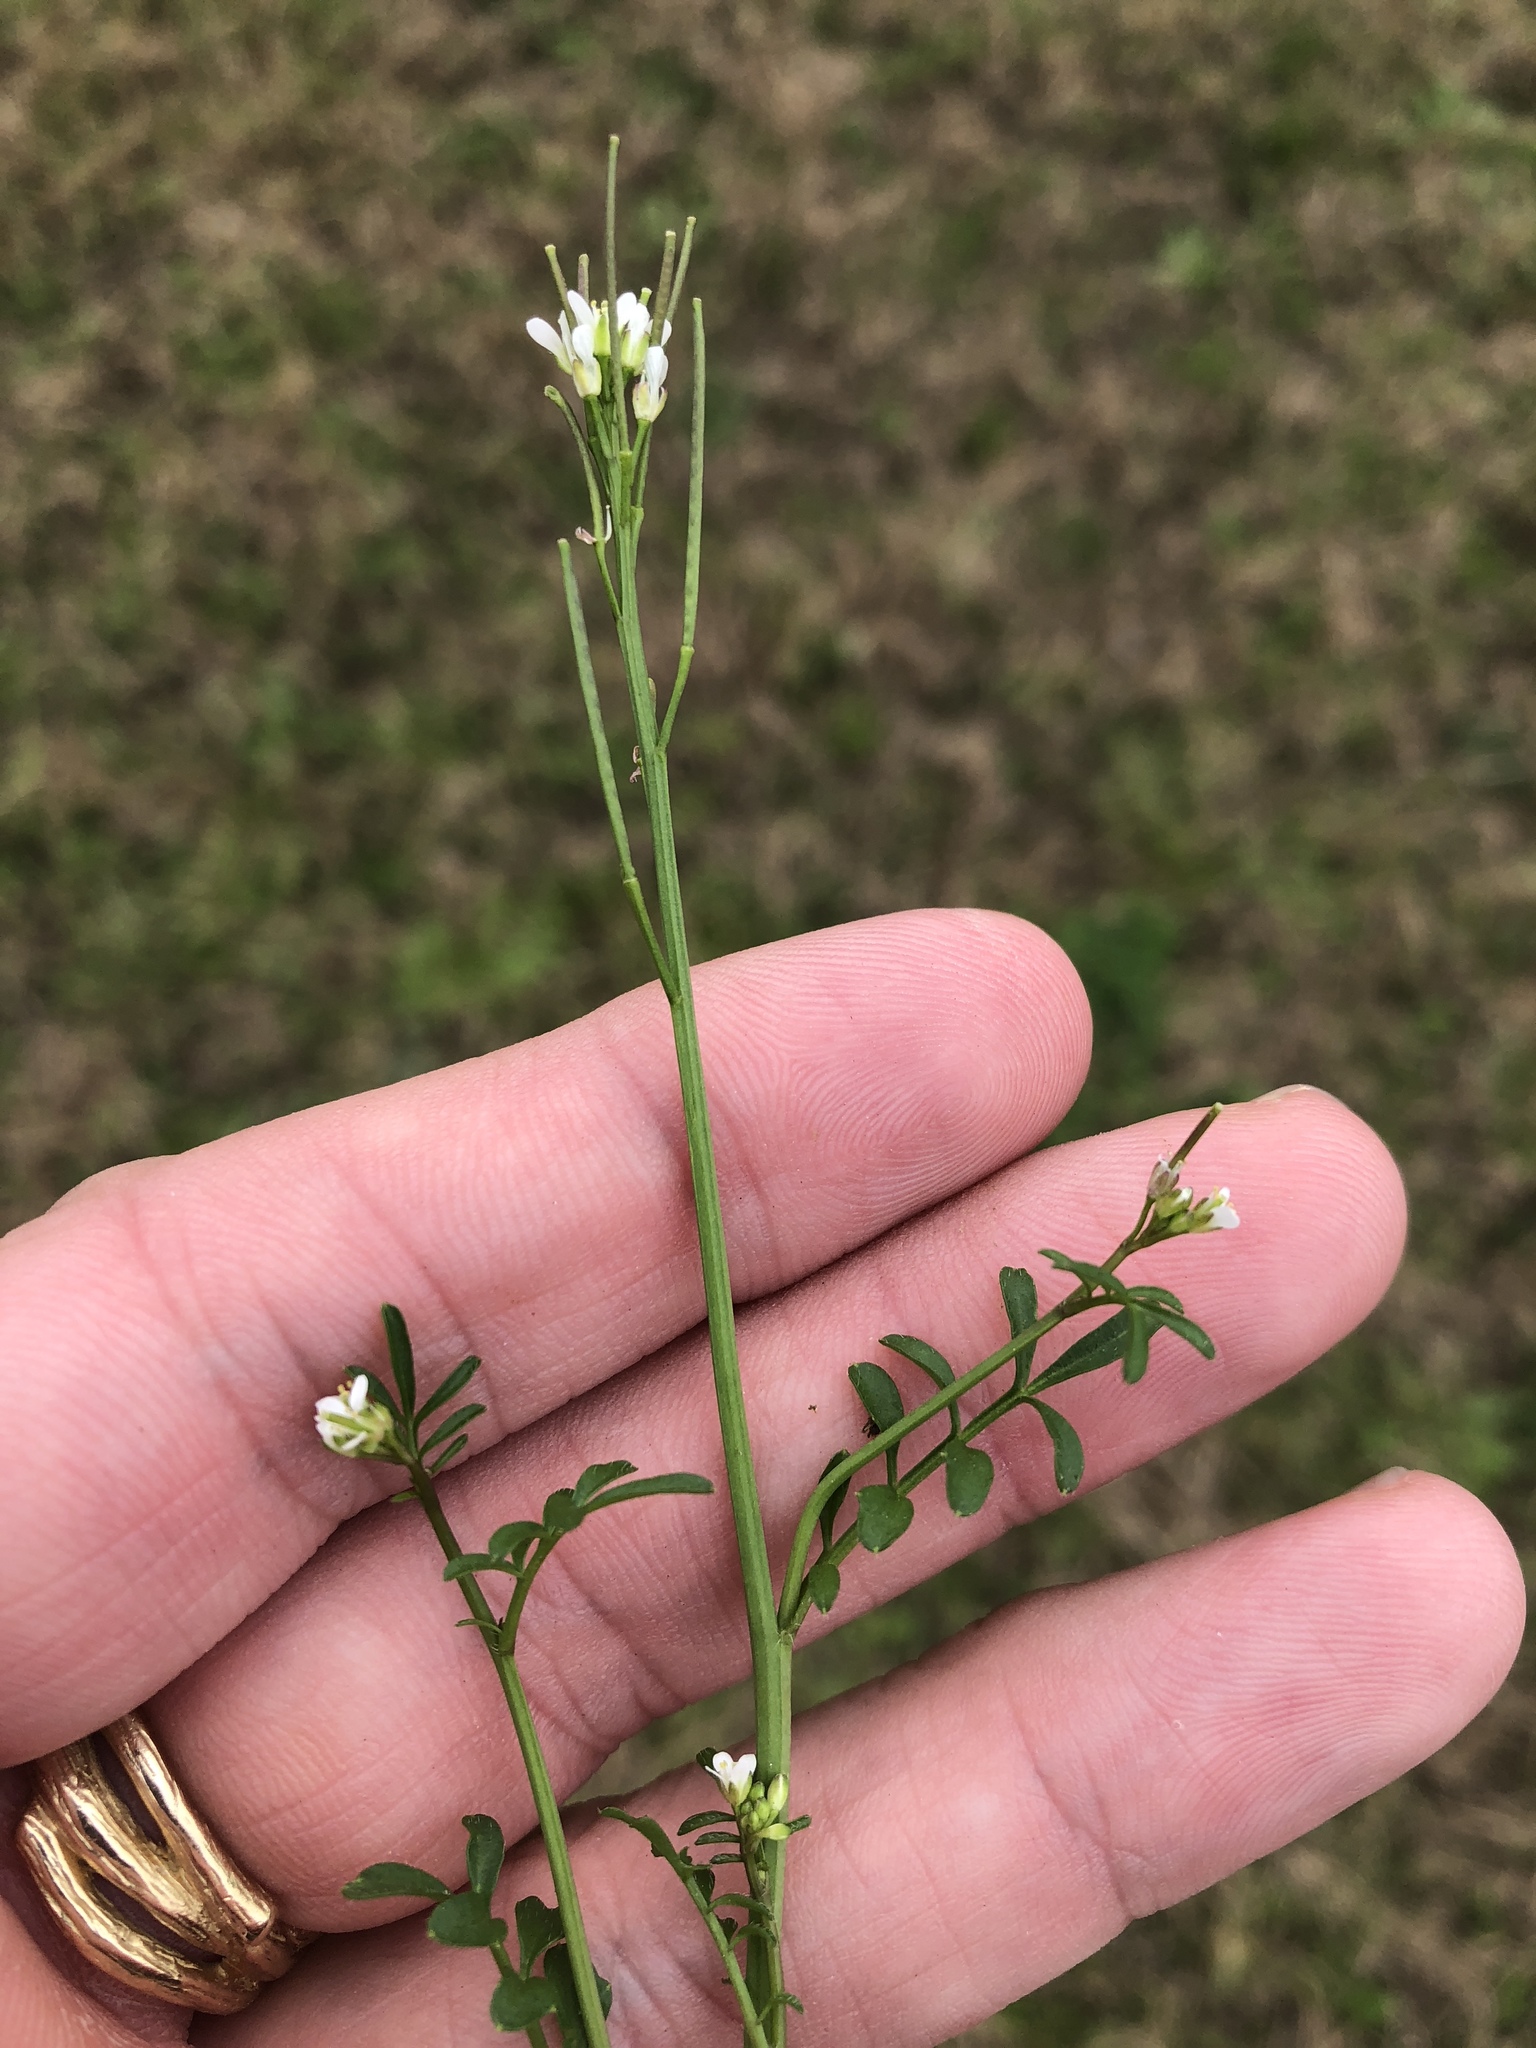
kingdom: Plantae
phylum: Tracheophyta
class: Magnoliopsida
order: Brassicales
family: Brassicaceae
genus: Cardamine
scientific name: Cardamine hirsuta
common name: Hairy bittercress
